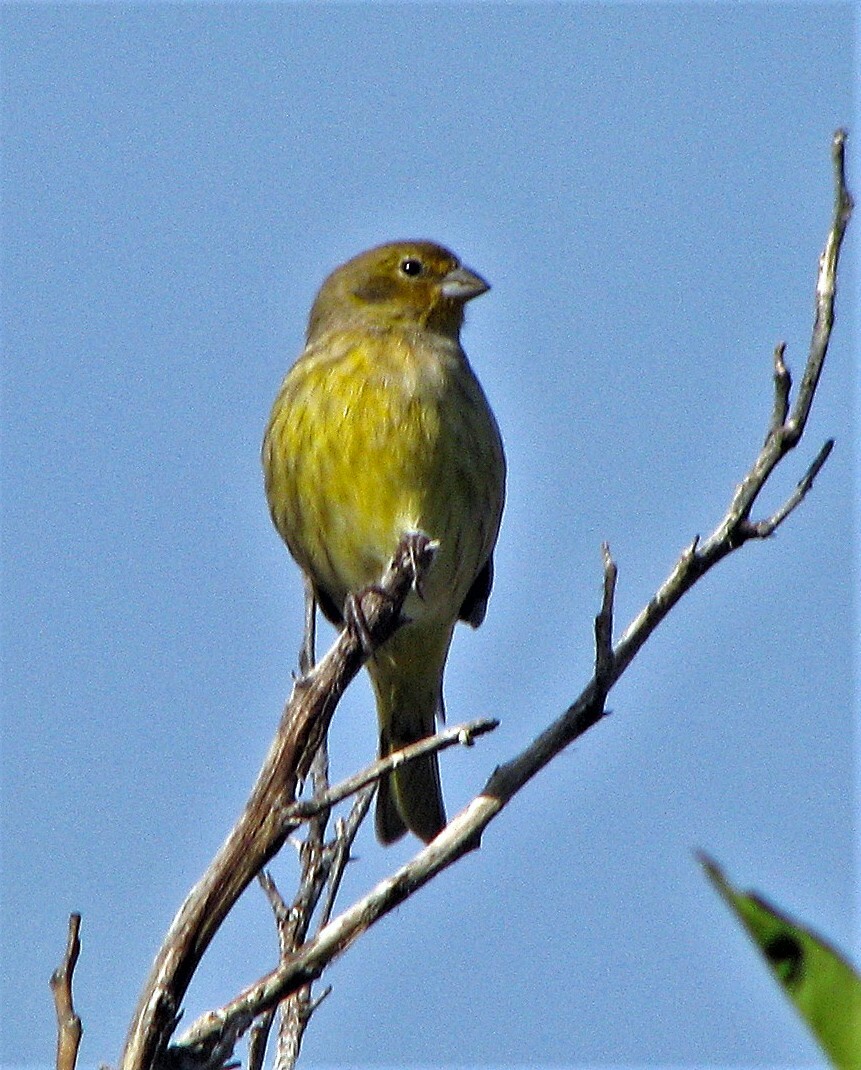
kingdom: Animalia
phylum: Chordata
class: Aves
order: Passeriformes
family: Thraupidae
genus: Sicalis
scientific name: Sicalis flaveola
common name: Saffron finch
